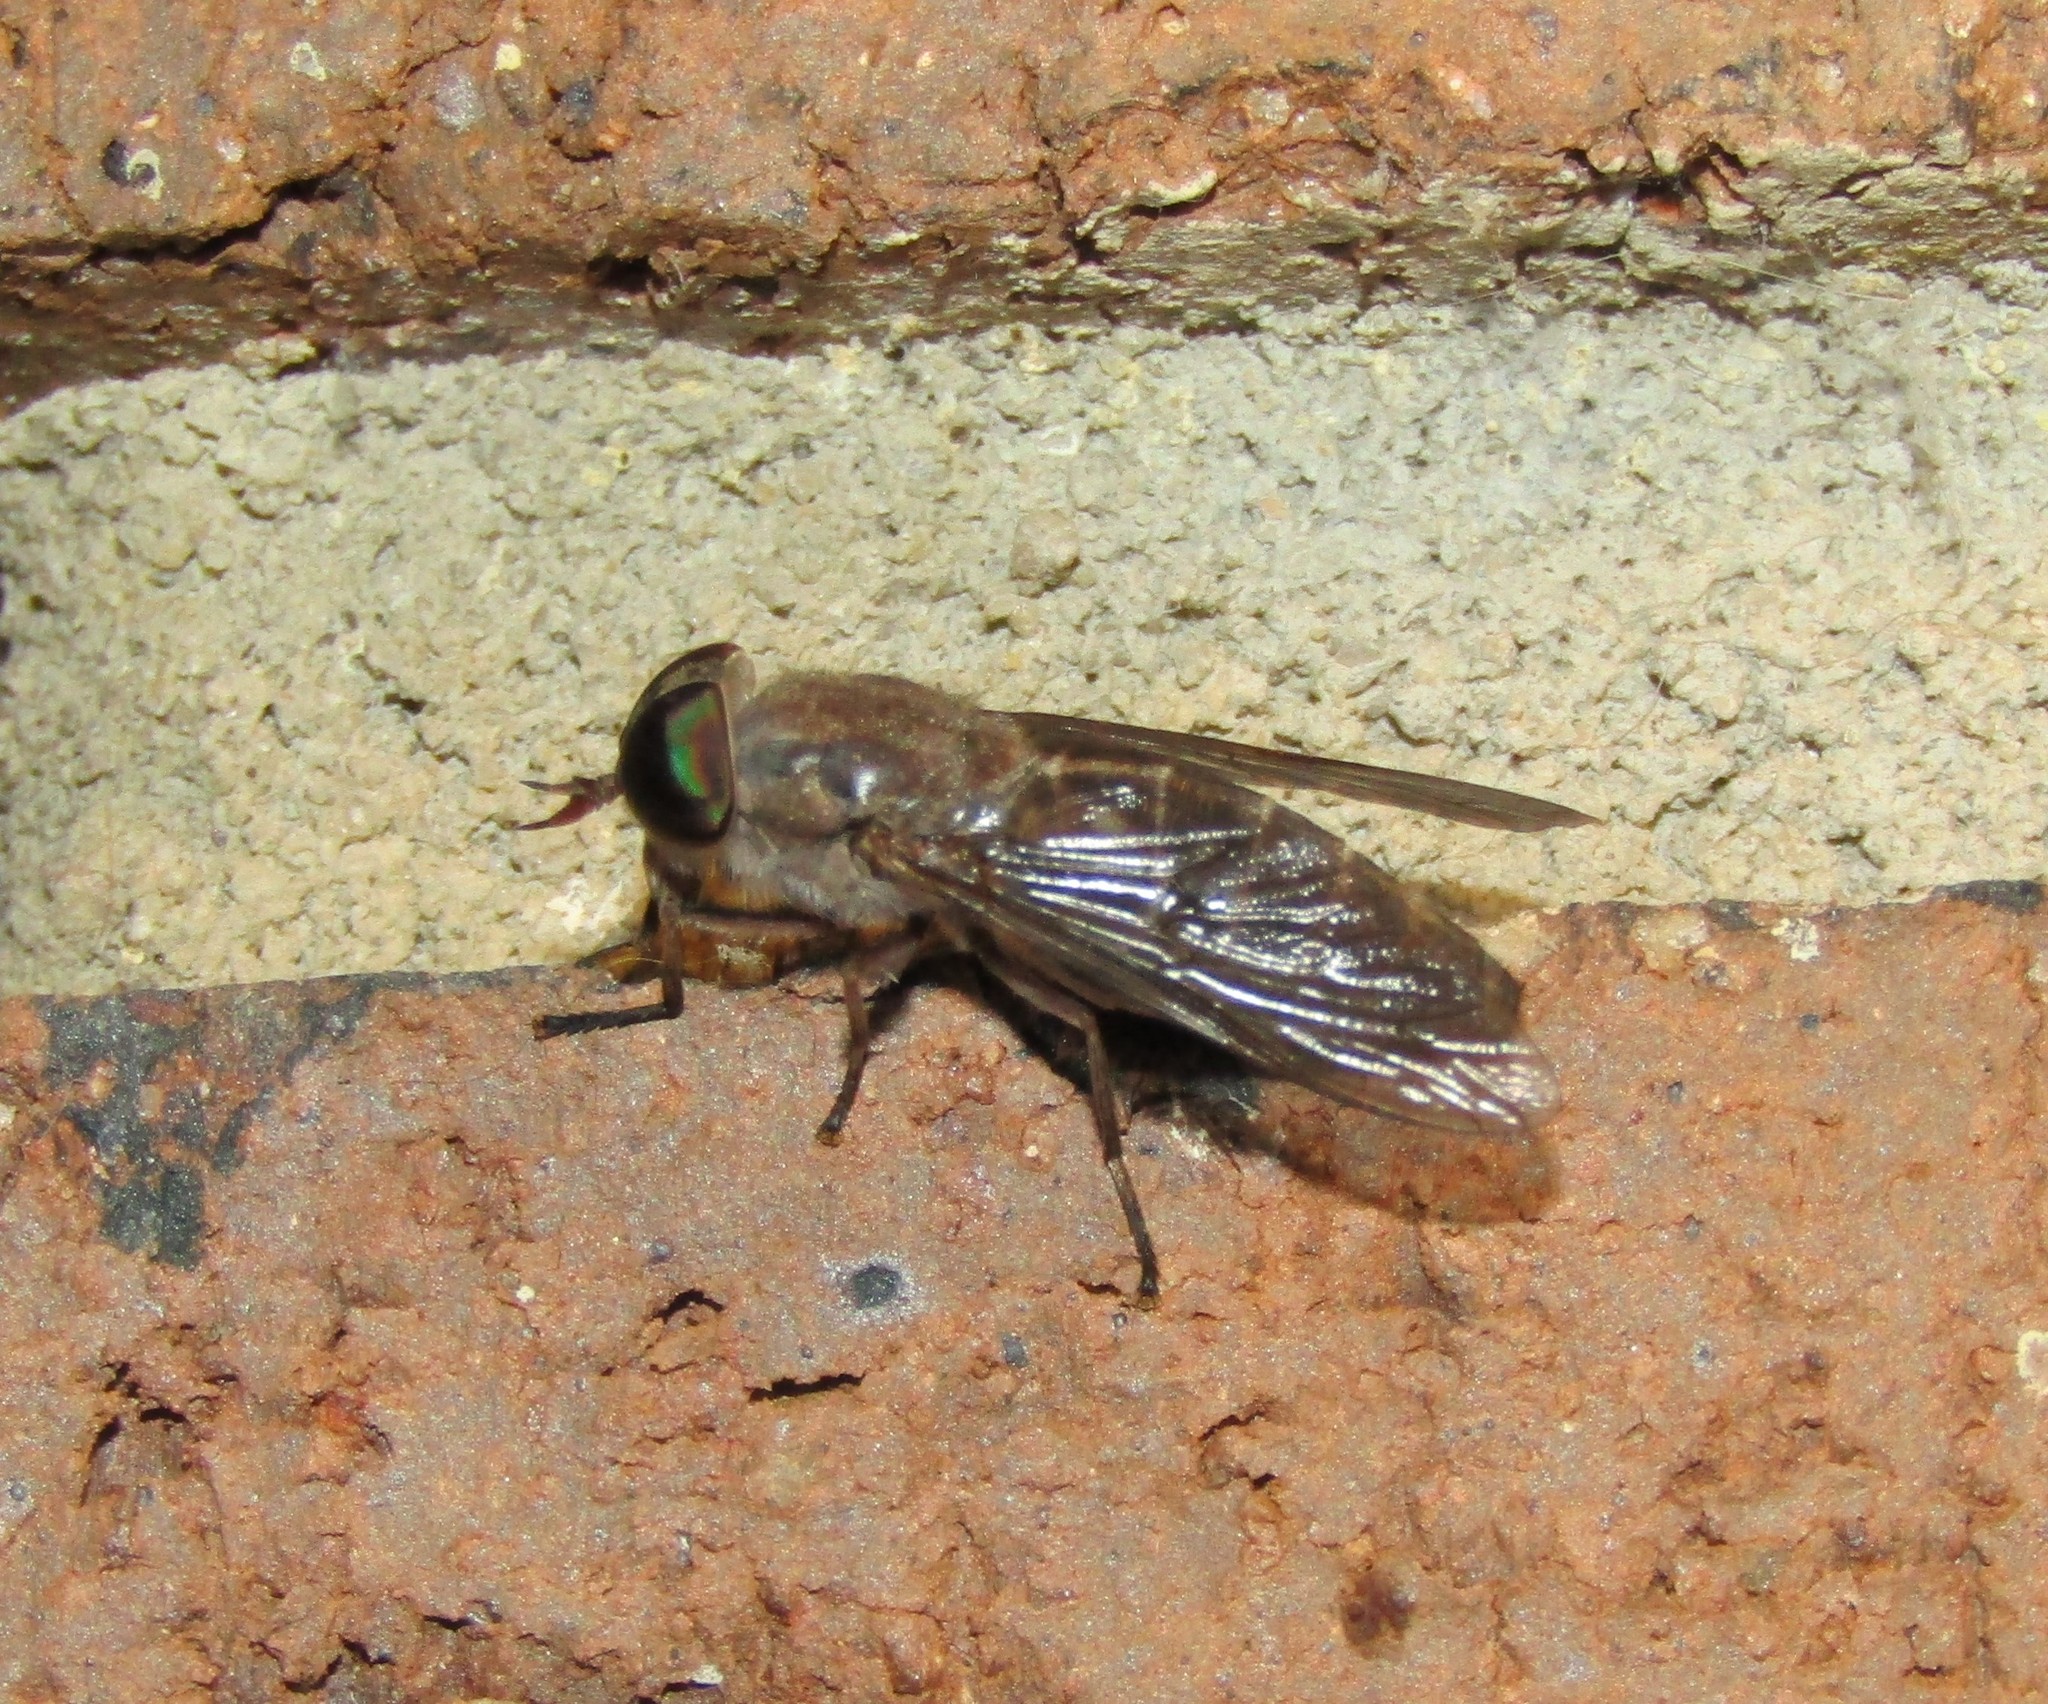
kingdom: Animalia
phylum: Arthropoda
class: Insecta
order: Diptera
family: Tabanidae
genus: Tabanus
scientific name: Tabanus sackeni
